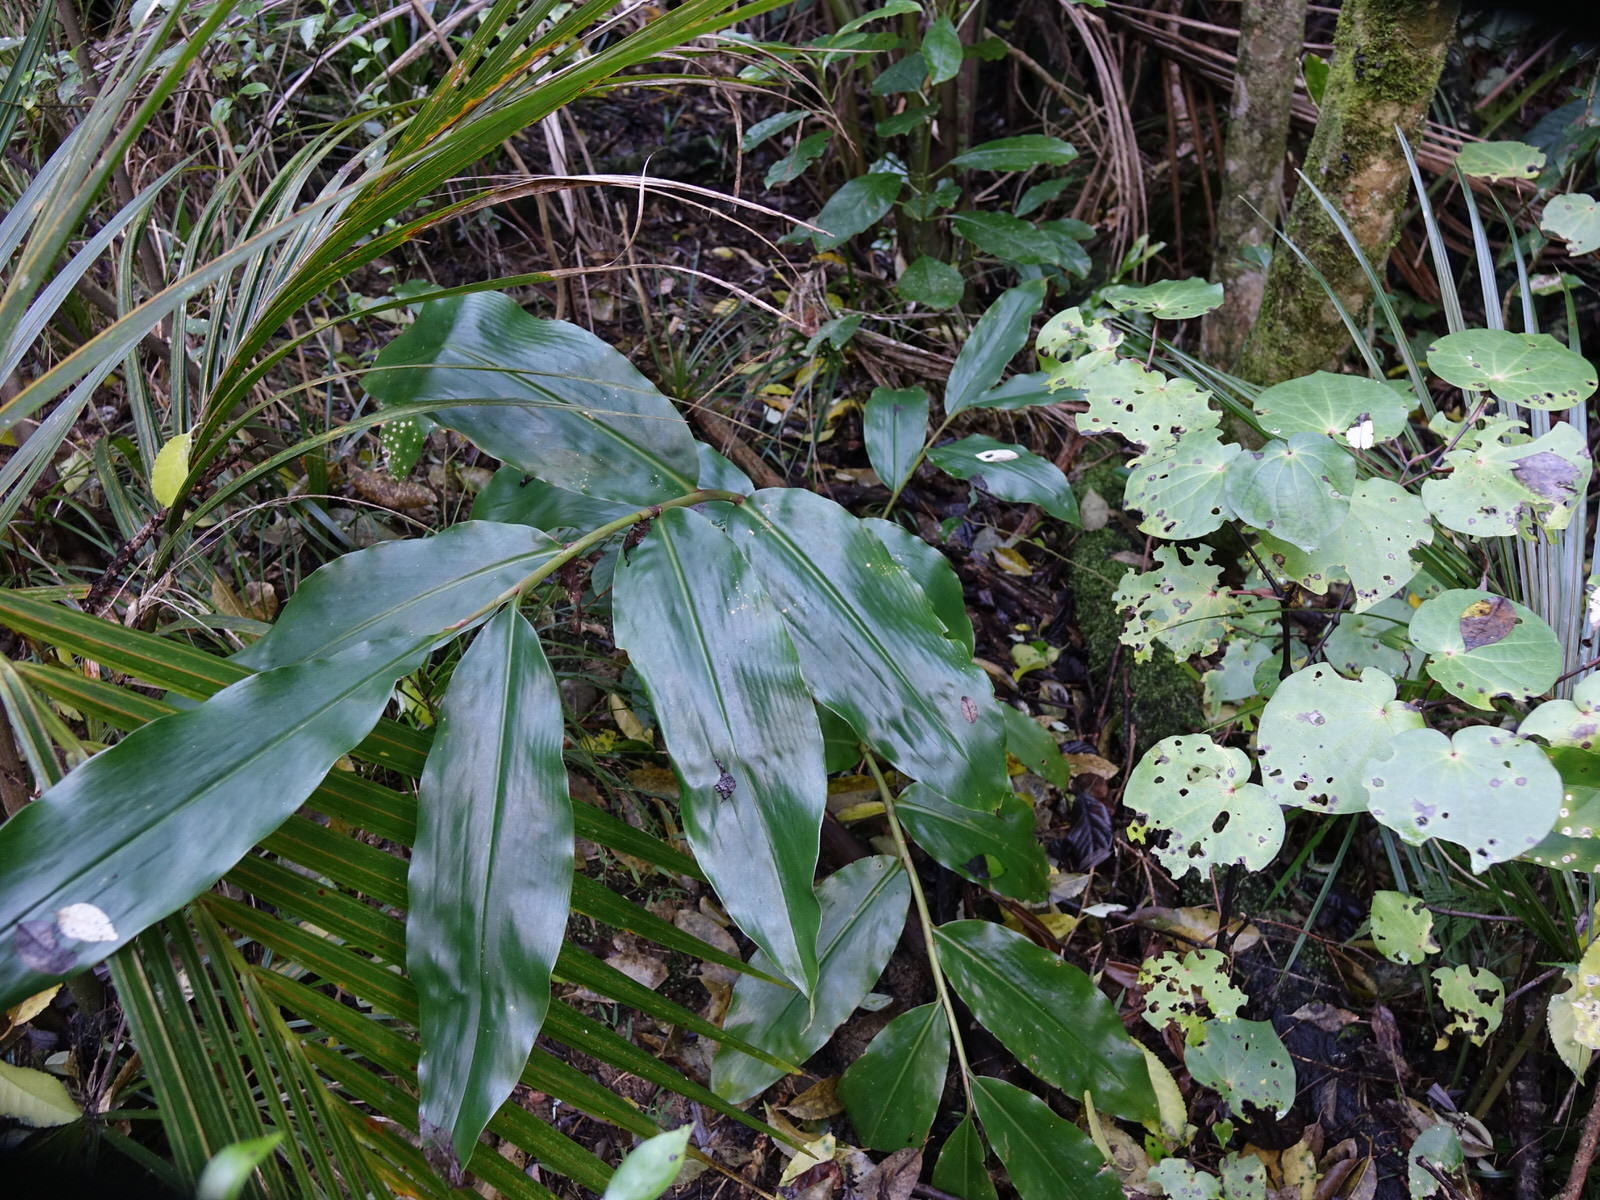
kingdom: Plantae
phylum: Tracheophyta
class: Liliopsida
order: Zingiberales
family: Zingiberaceae
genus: Hedychium
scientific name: Hedychium gardnerianum
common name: Himalayan ginger
